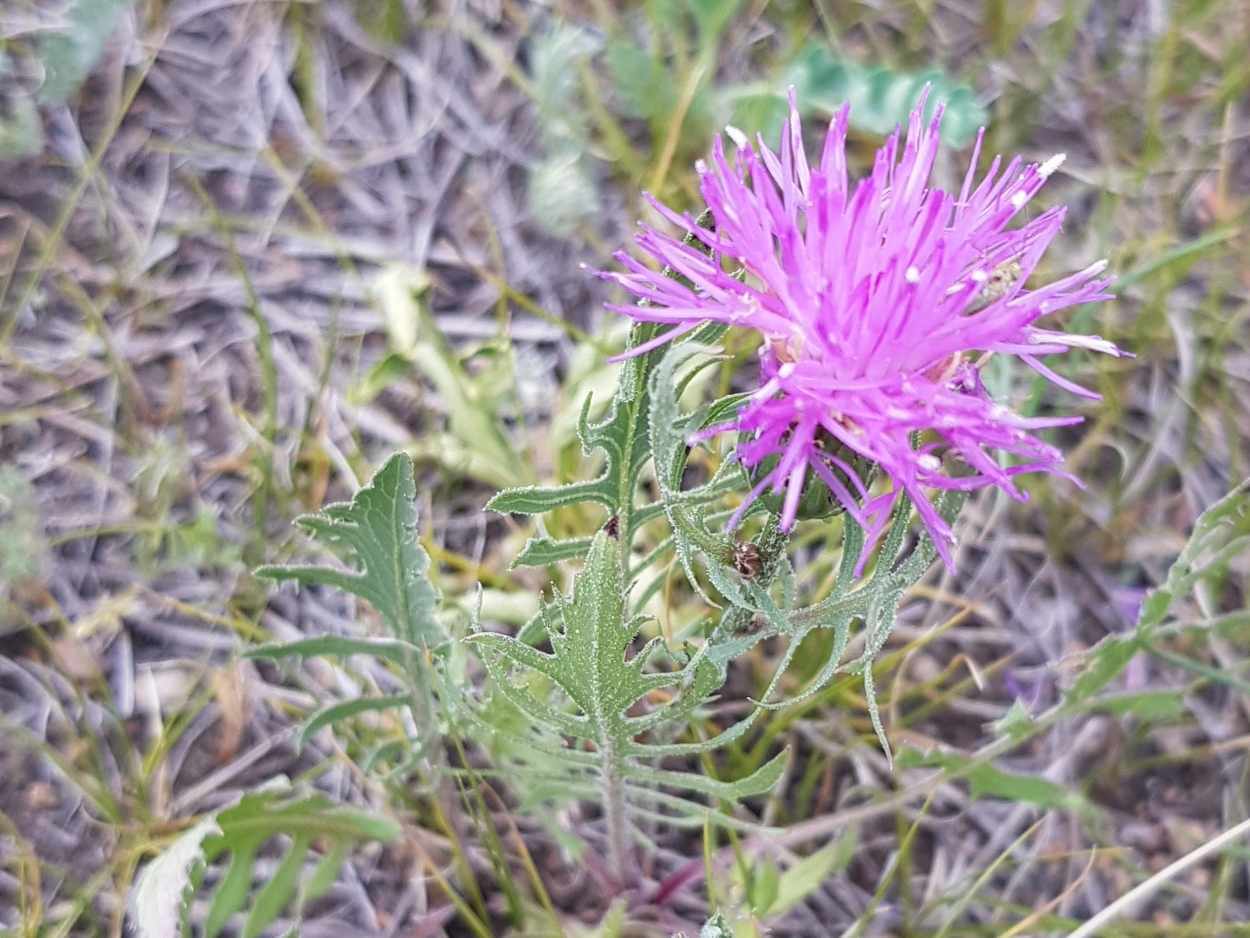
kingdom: Plantae
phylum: Tracheophyta
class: Magnoliopsida
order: Asterales
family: Asteraceae
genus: Klasea
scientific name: Klasea centauroides
